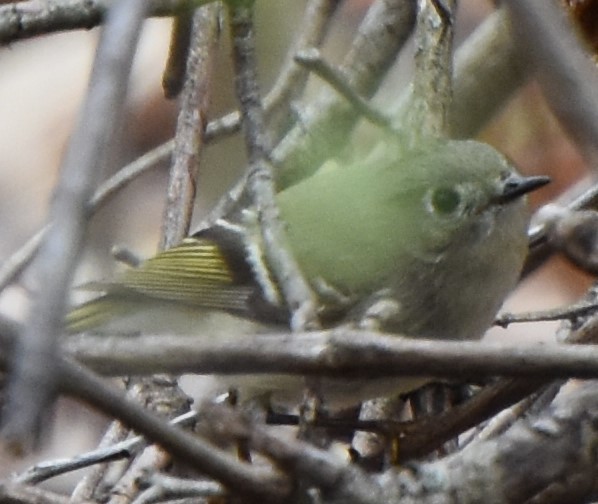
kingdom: Animalia
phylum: Chordata
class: Aves
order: Passeriformes
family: Regulidae
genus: Regulus
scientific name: Regulus calendula
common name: Ruby-crowned kinglet
